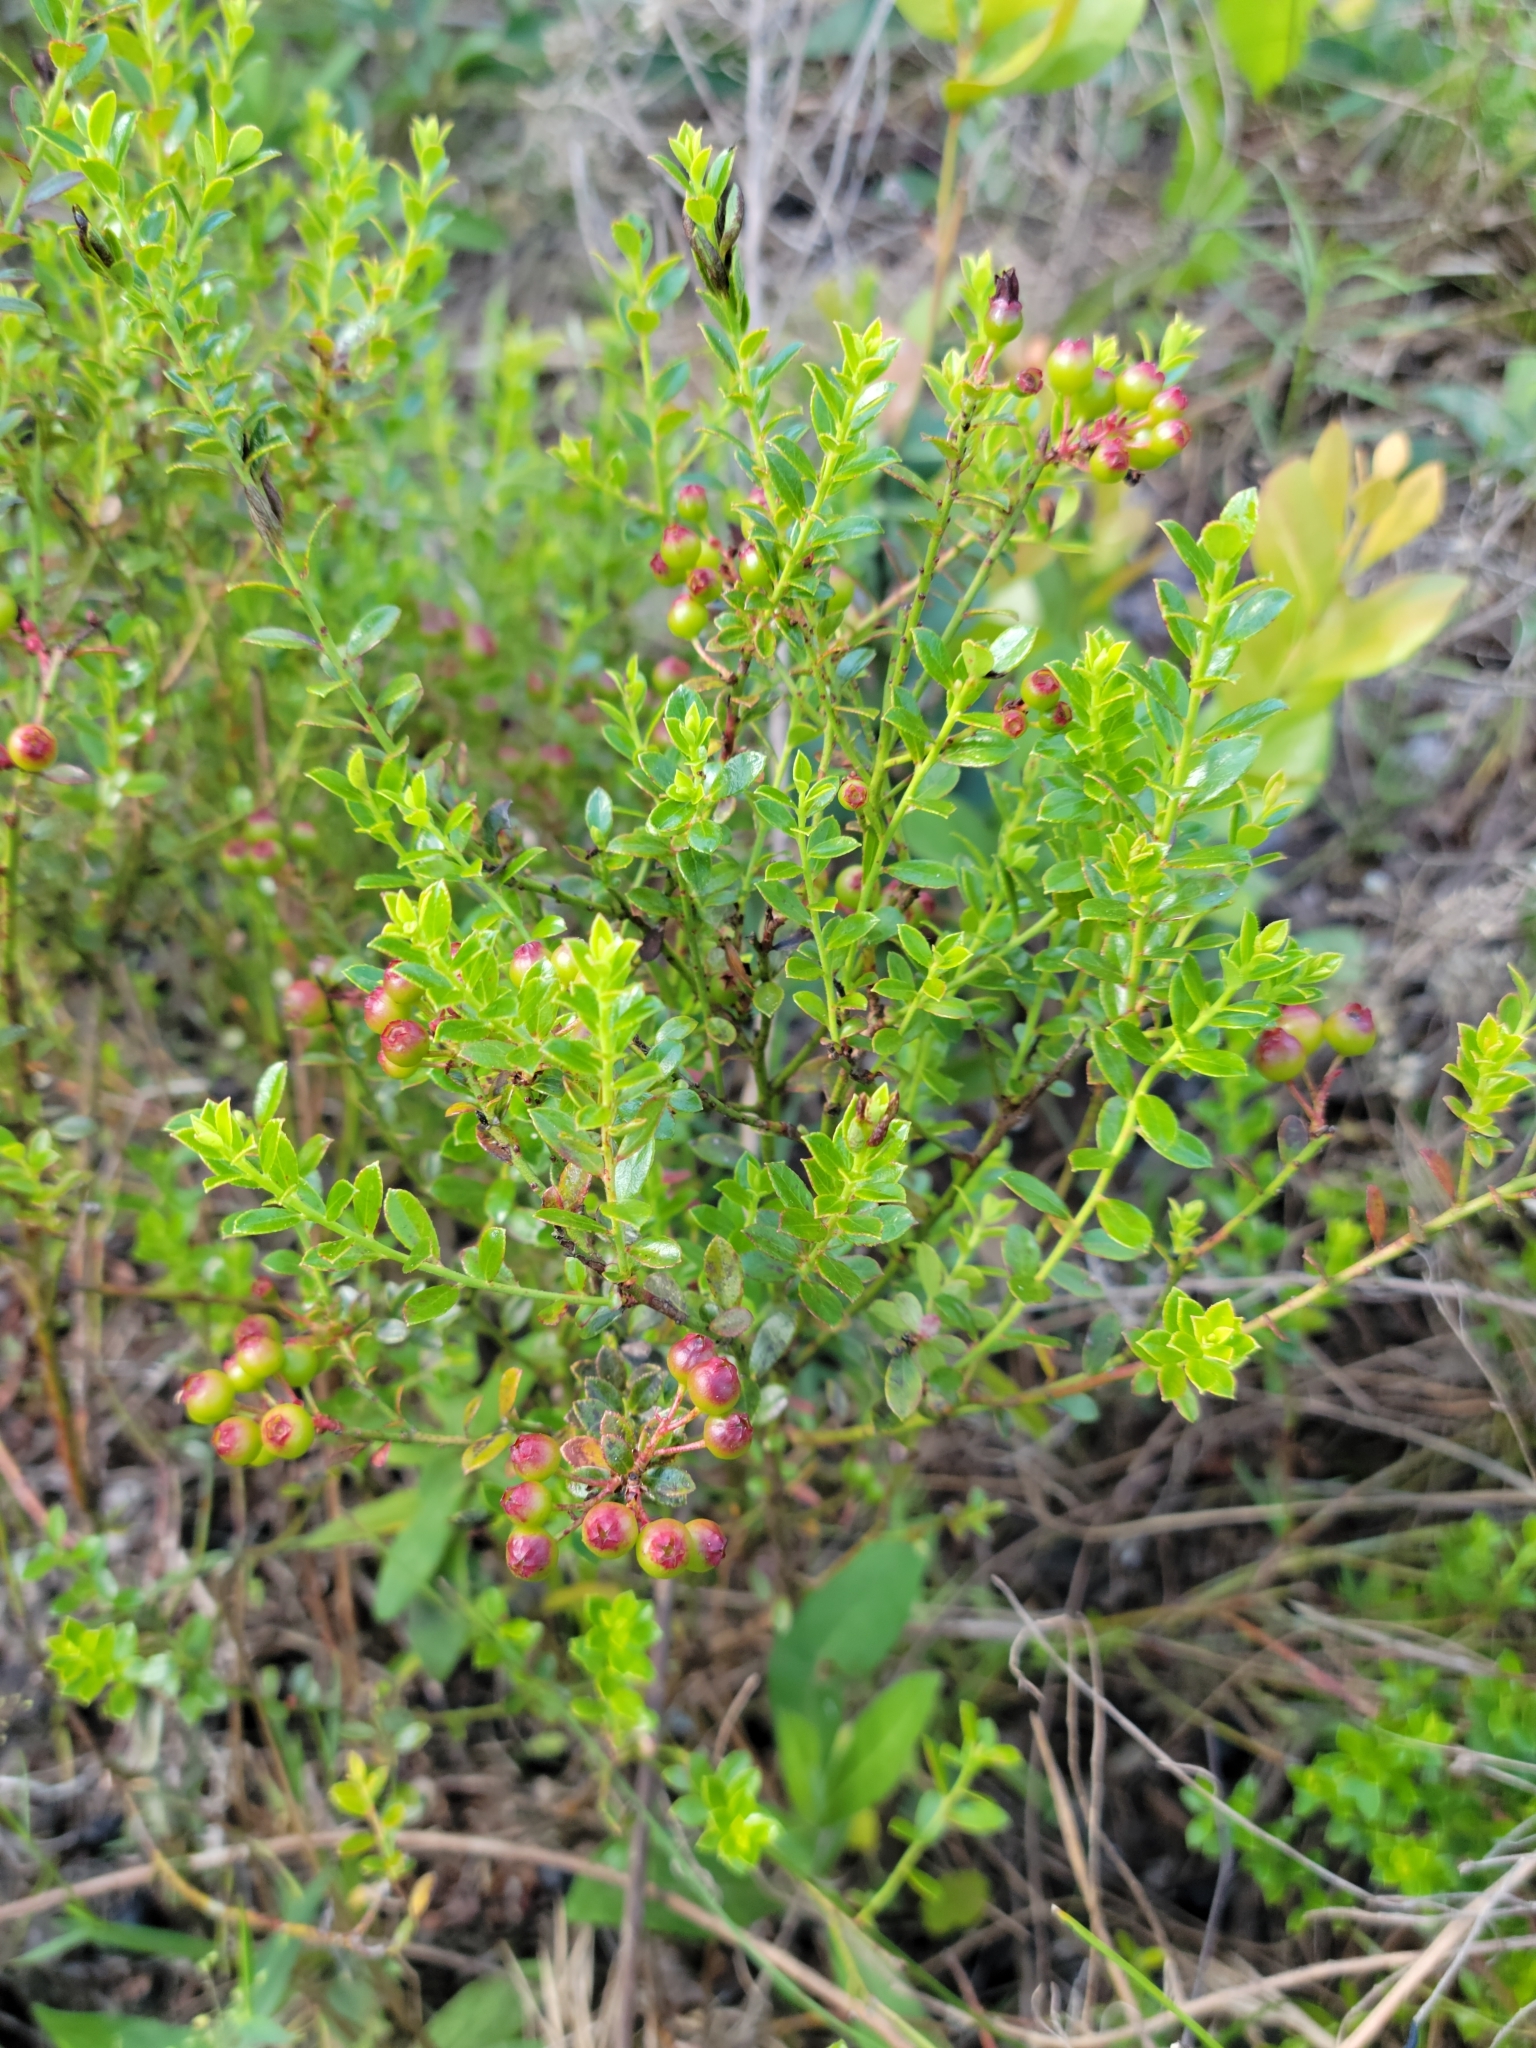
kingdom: Plantae
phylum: Tracheophyta
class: Magnoliopsida
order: Ericales
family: Ericaceae
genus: Vaccinium
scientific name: Vaccinium myrsinites
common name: Evergreen blueberry
